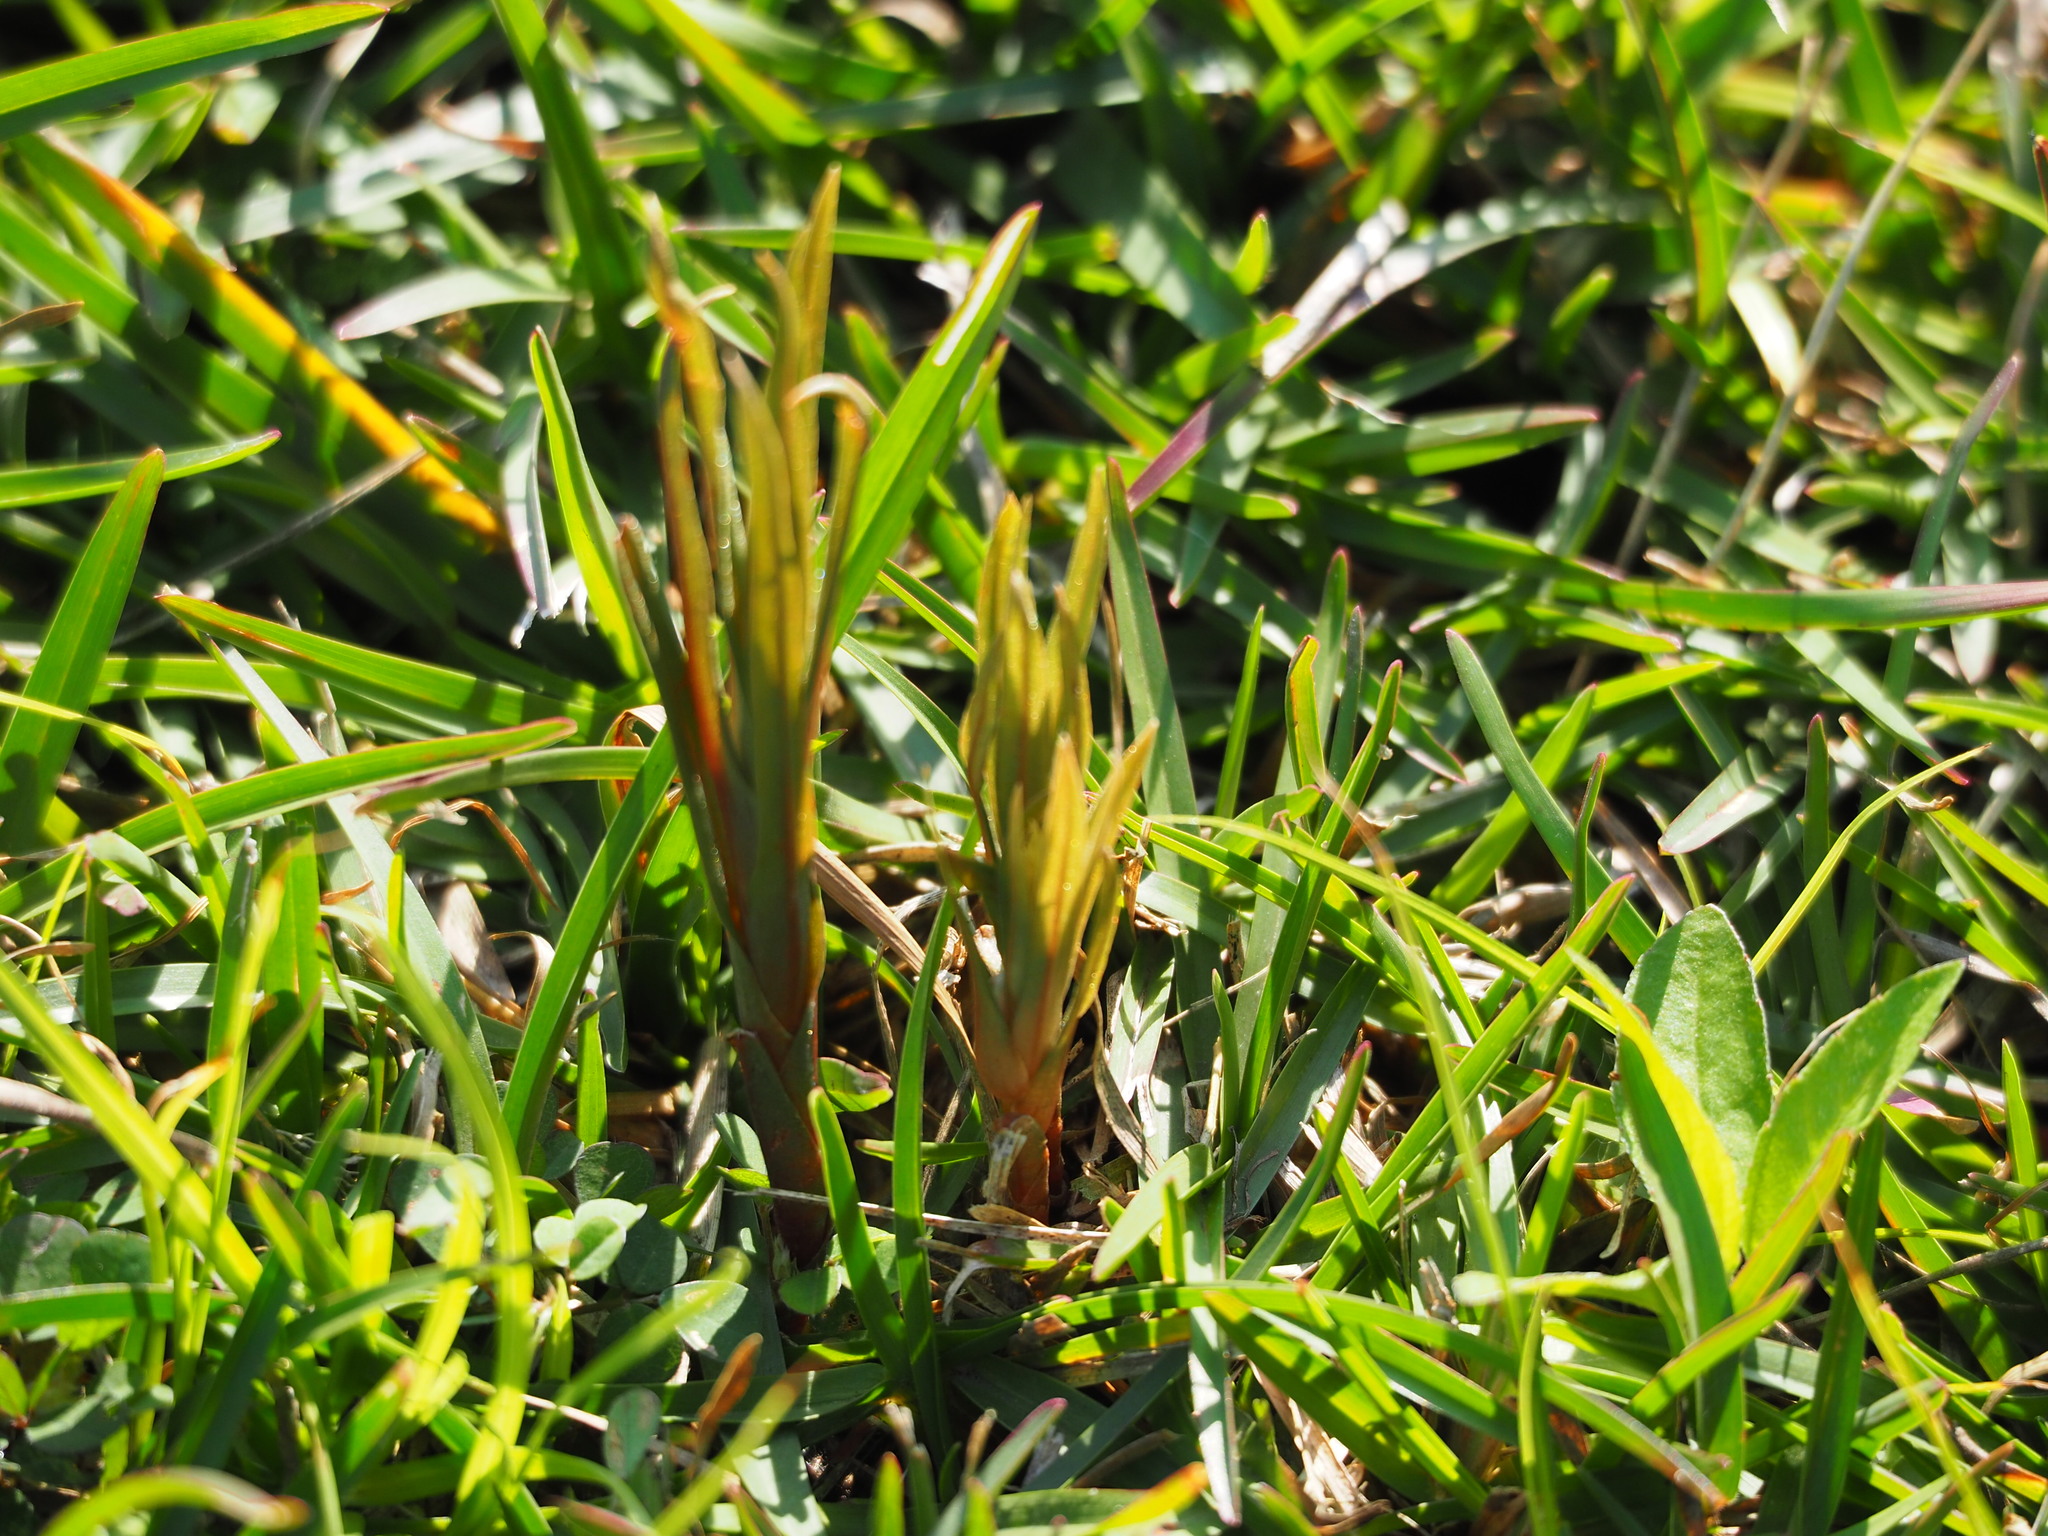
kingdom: Plantae
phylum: Tracheophyta
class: Liliopsida
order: Asparagales
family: Orchidaceae
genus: Zeuxine
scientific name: Zeuxine strateumatica
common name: Soldier's orchid
